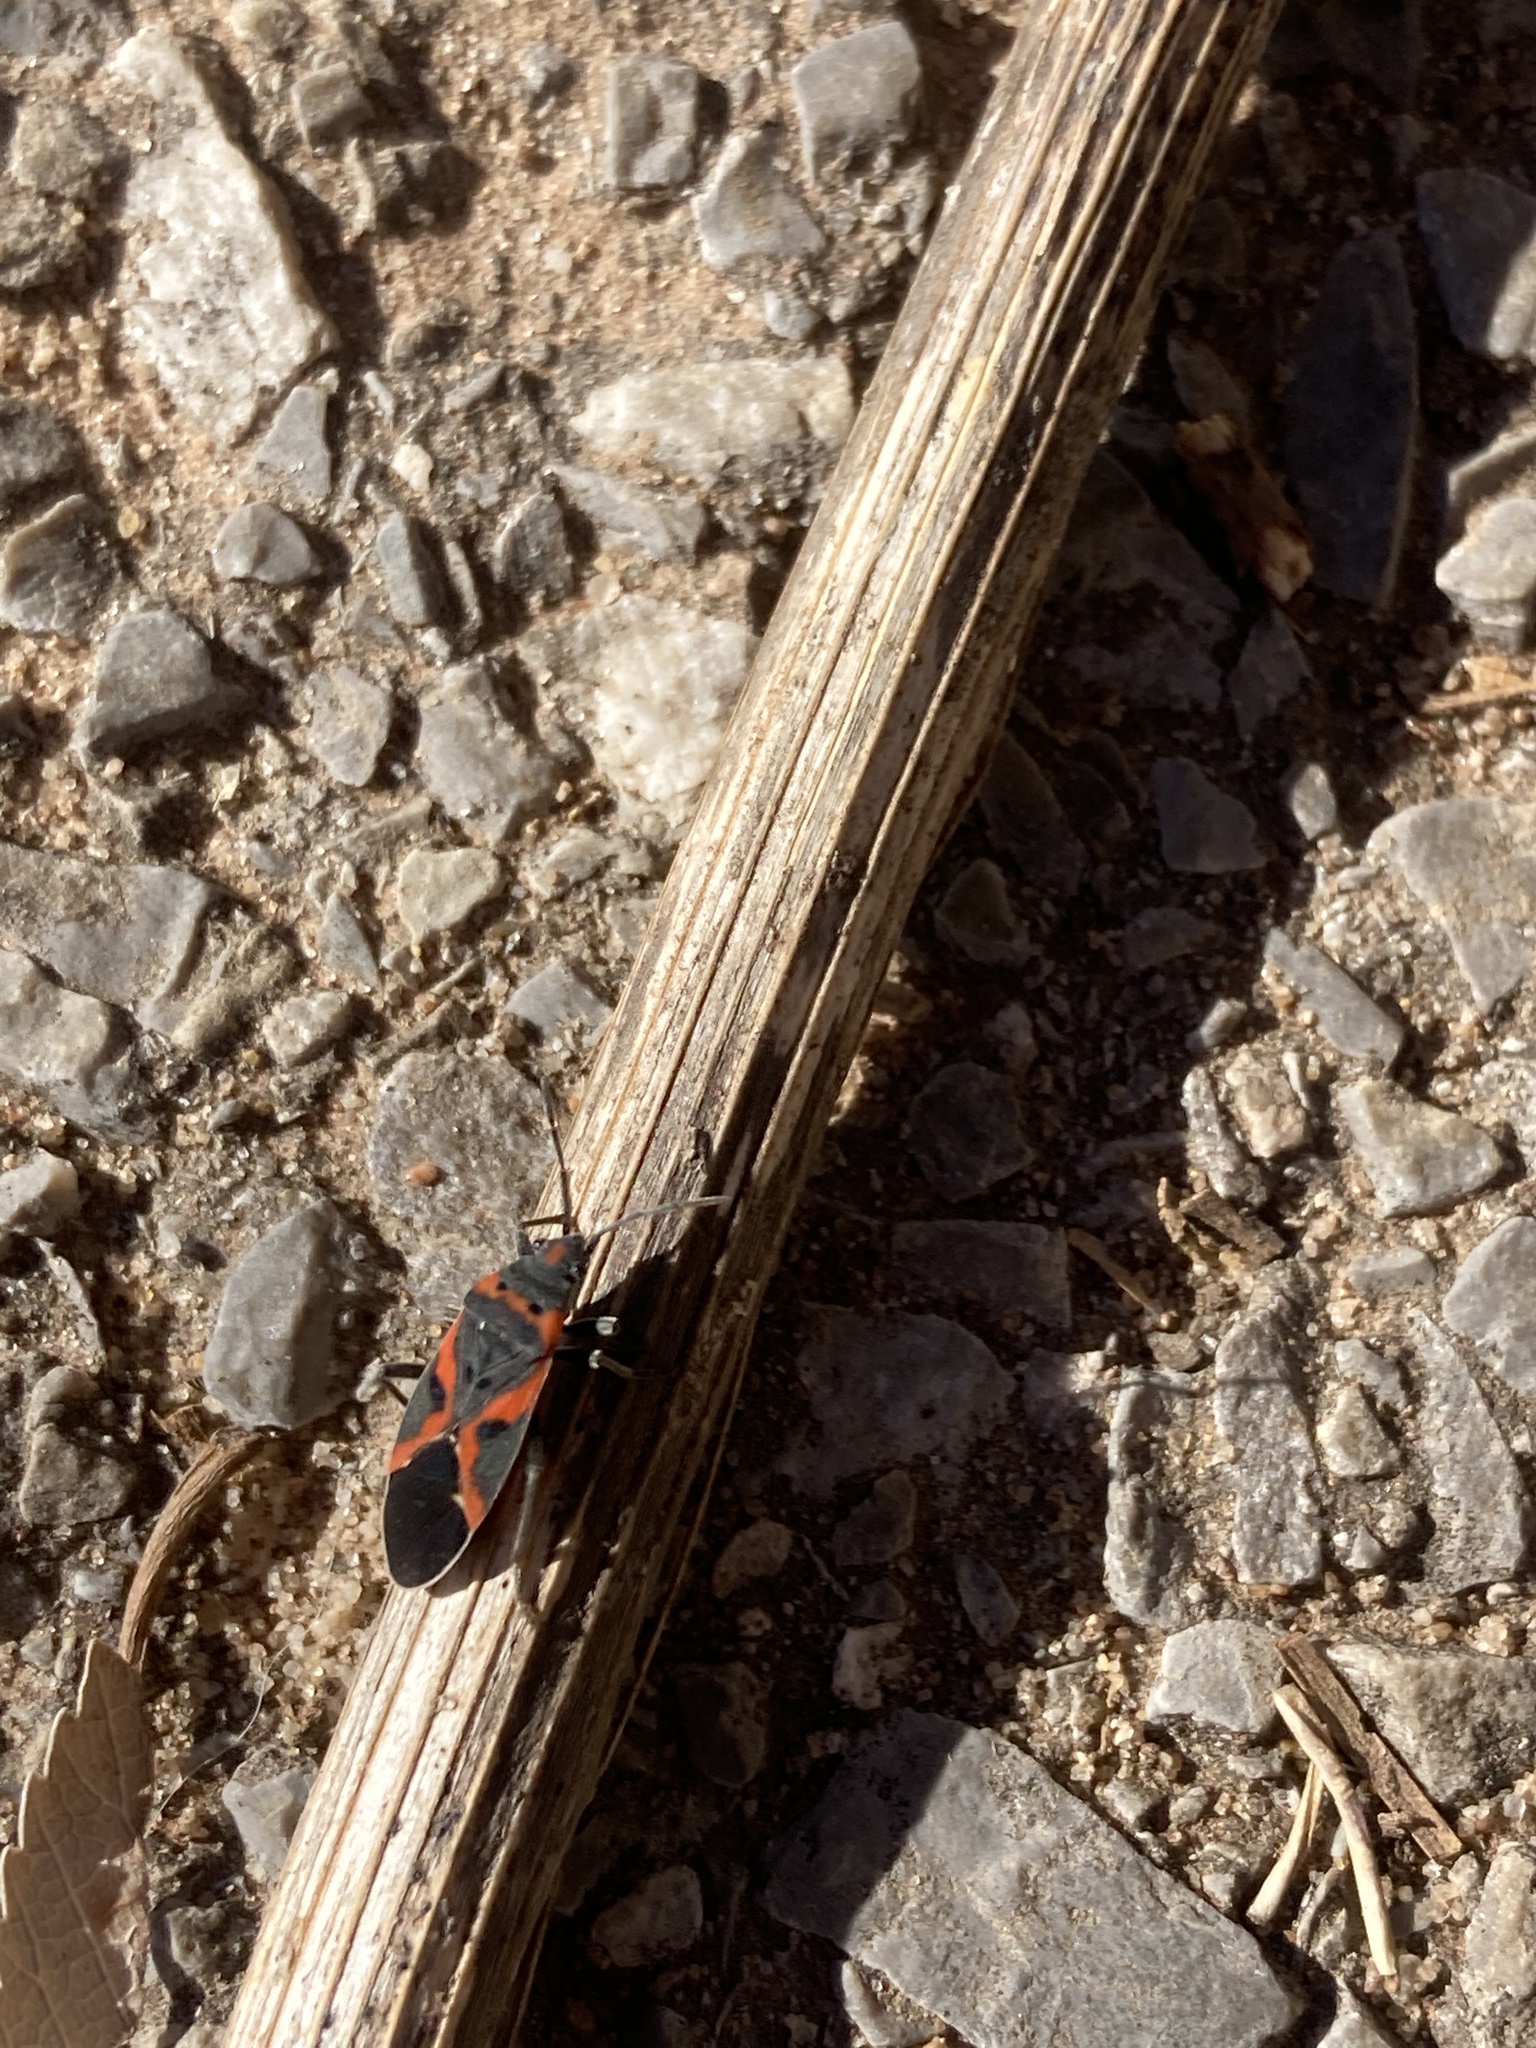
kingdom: Animalia
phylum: Arthropoda
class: Insecta
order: Hemiptera
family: Lygaeidae
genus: Lygaeus
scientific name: Lygaeus kalmii
